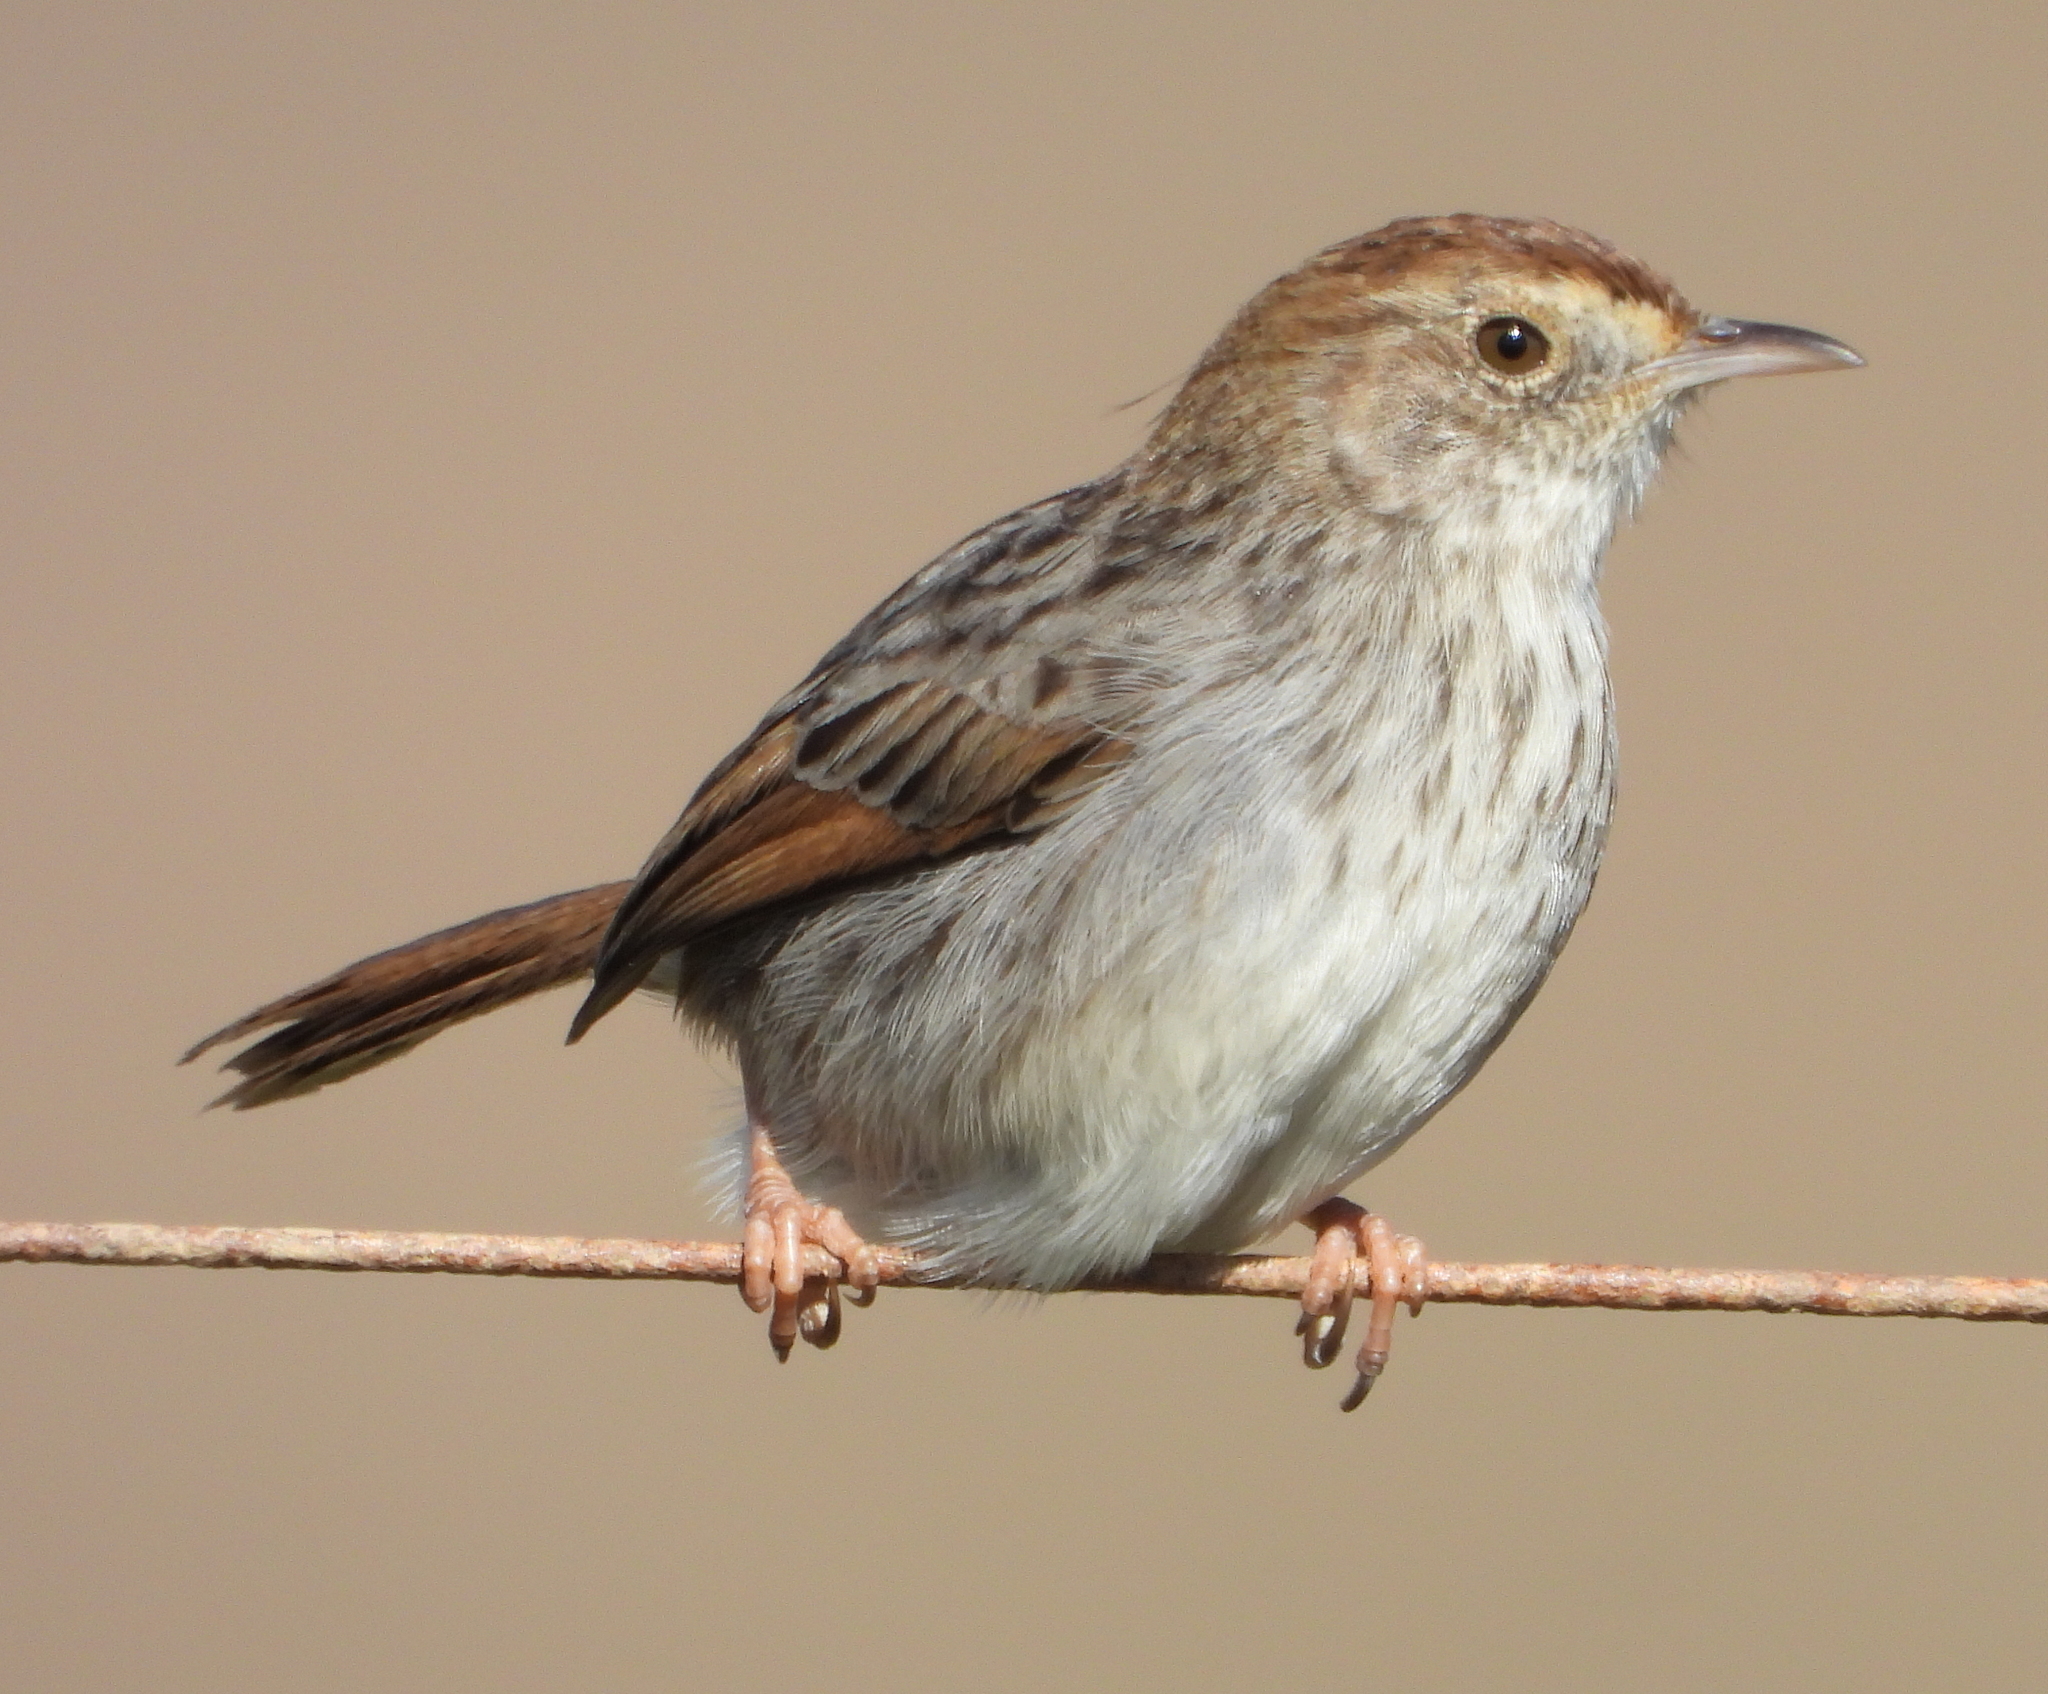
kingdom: Animalia
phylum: Chordata
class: Aves
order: Passeriformes
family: Cisticolidae
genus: Cisticola
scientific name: Cisticola subruficapilla
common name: Grey-backed cisticola
